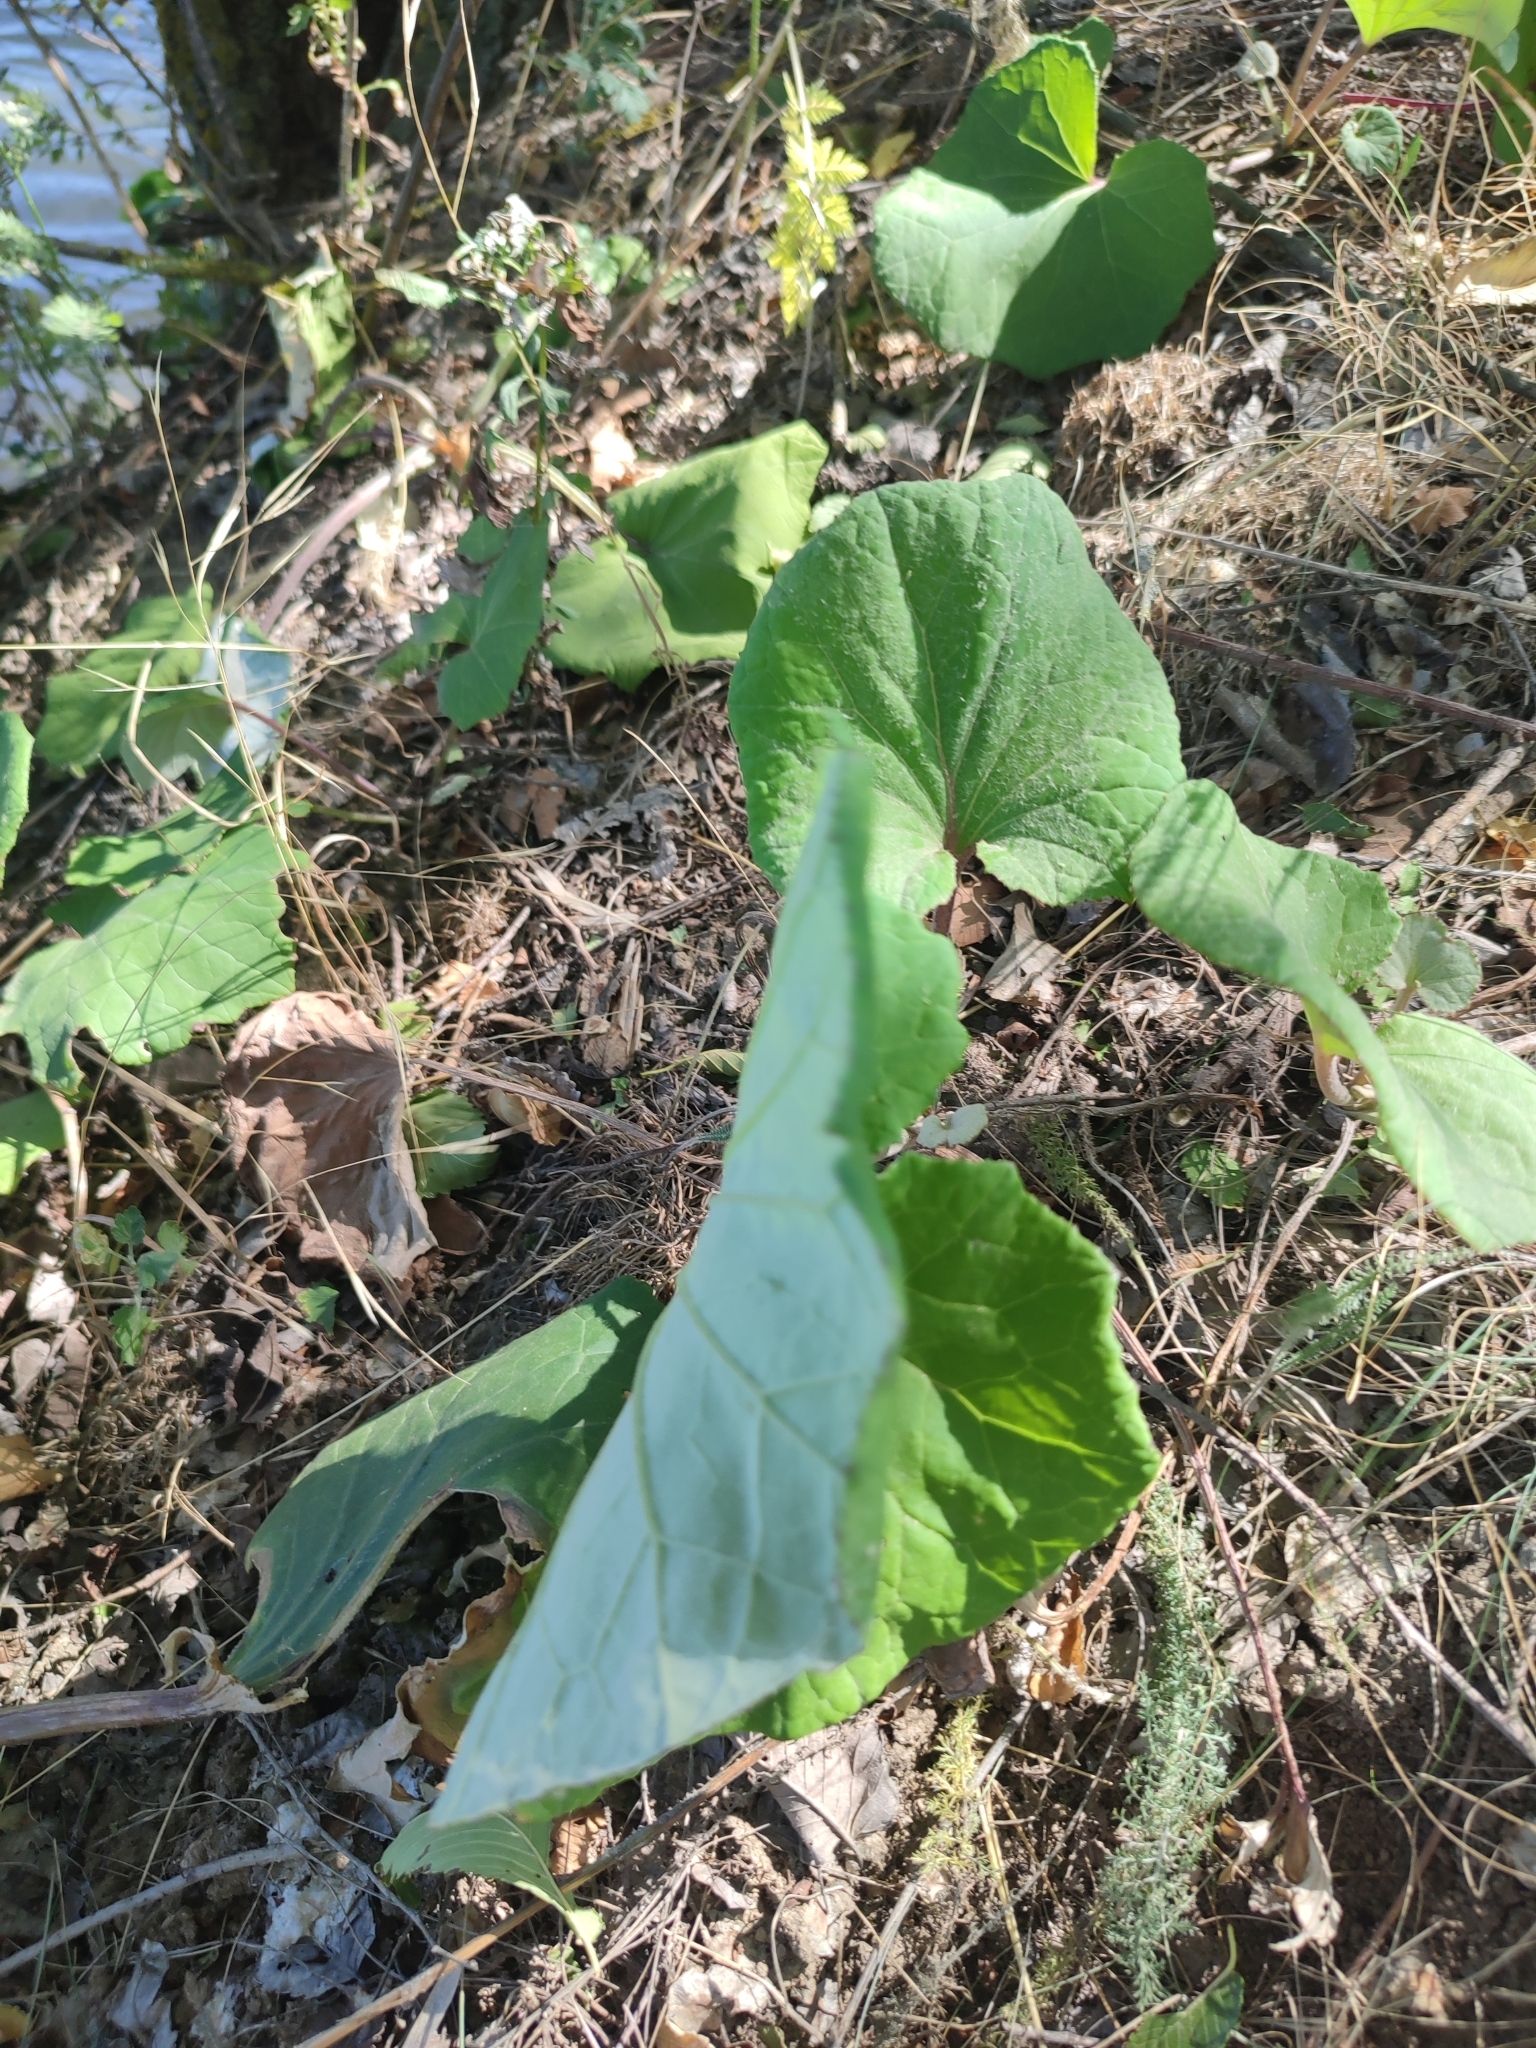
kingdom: Plantae
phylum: Tracheophyta
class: Magnoliopsida
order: Asterales
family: Asteraceae
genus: Tussilago
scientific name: Tussilago farfara
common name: Coltsfoot
